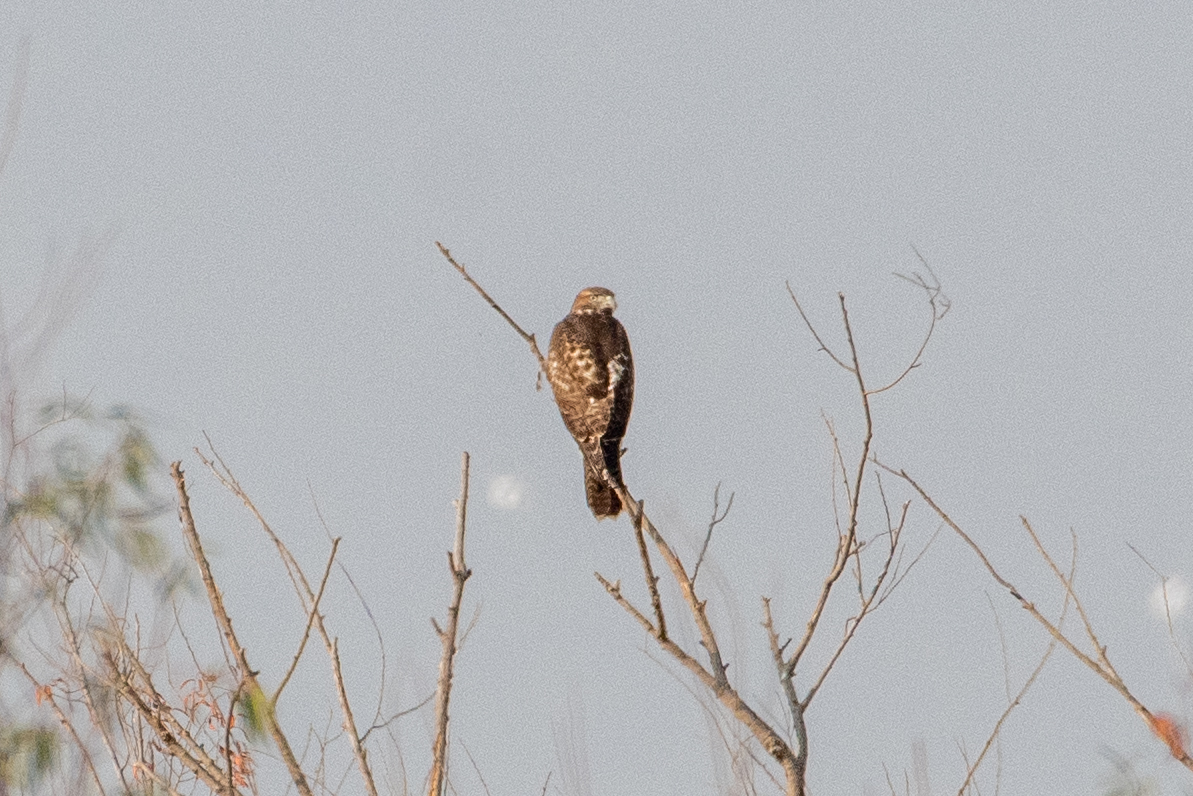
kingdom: Animalia
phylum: Chordata
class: Aves
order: Accipitriformes
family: Accipitridae
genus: Buteo
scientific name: Buteo jamaicensis
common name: Red-tailed hawk
